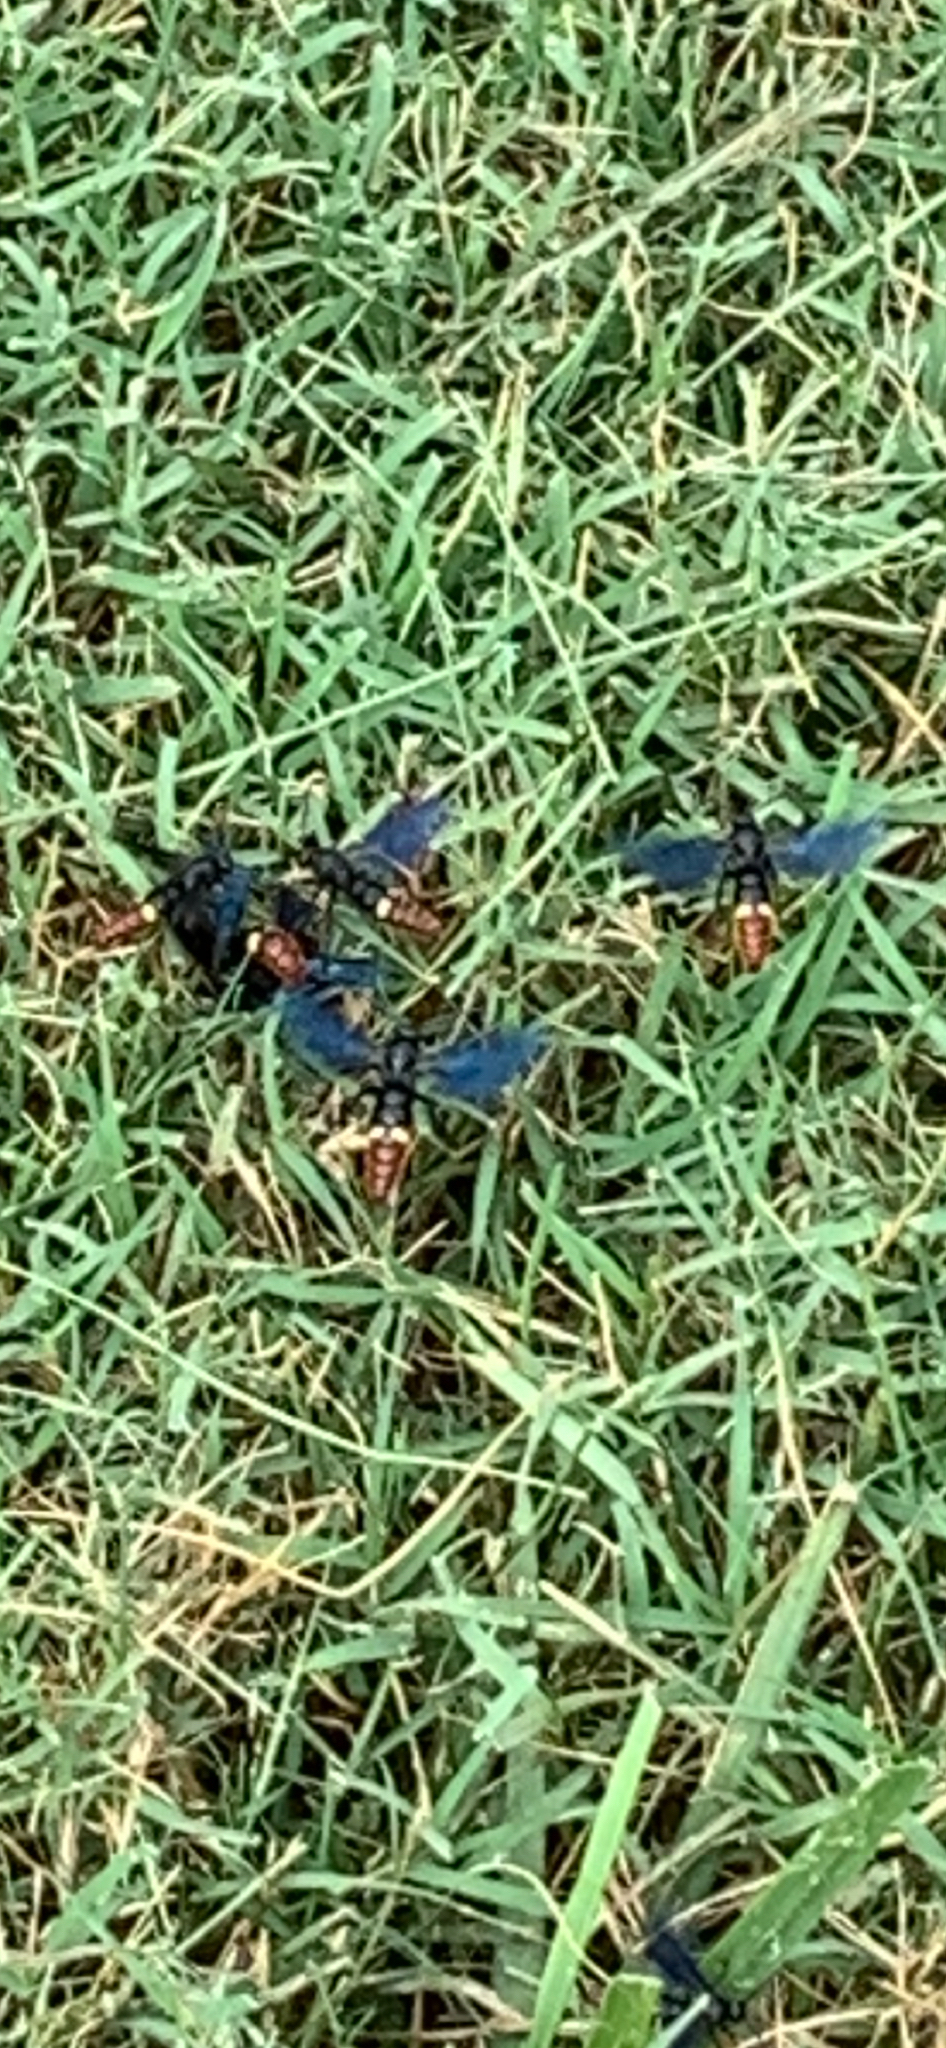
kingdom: Animalia
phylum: Arthropoda
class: Insecta
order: Hymenoptera
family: Scoliidae
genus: Scolia
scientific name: Scolia dubia
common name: Blue-winged scoliid wasp
